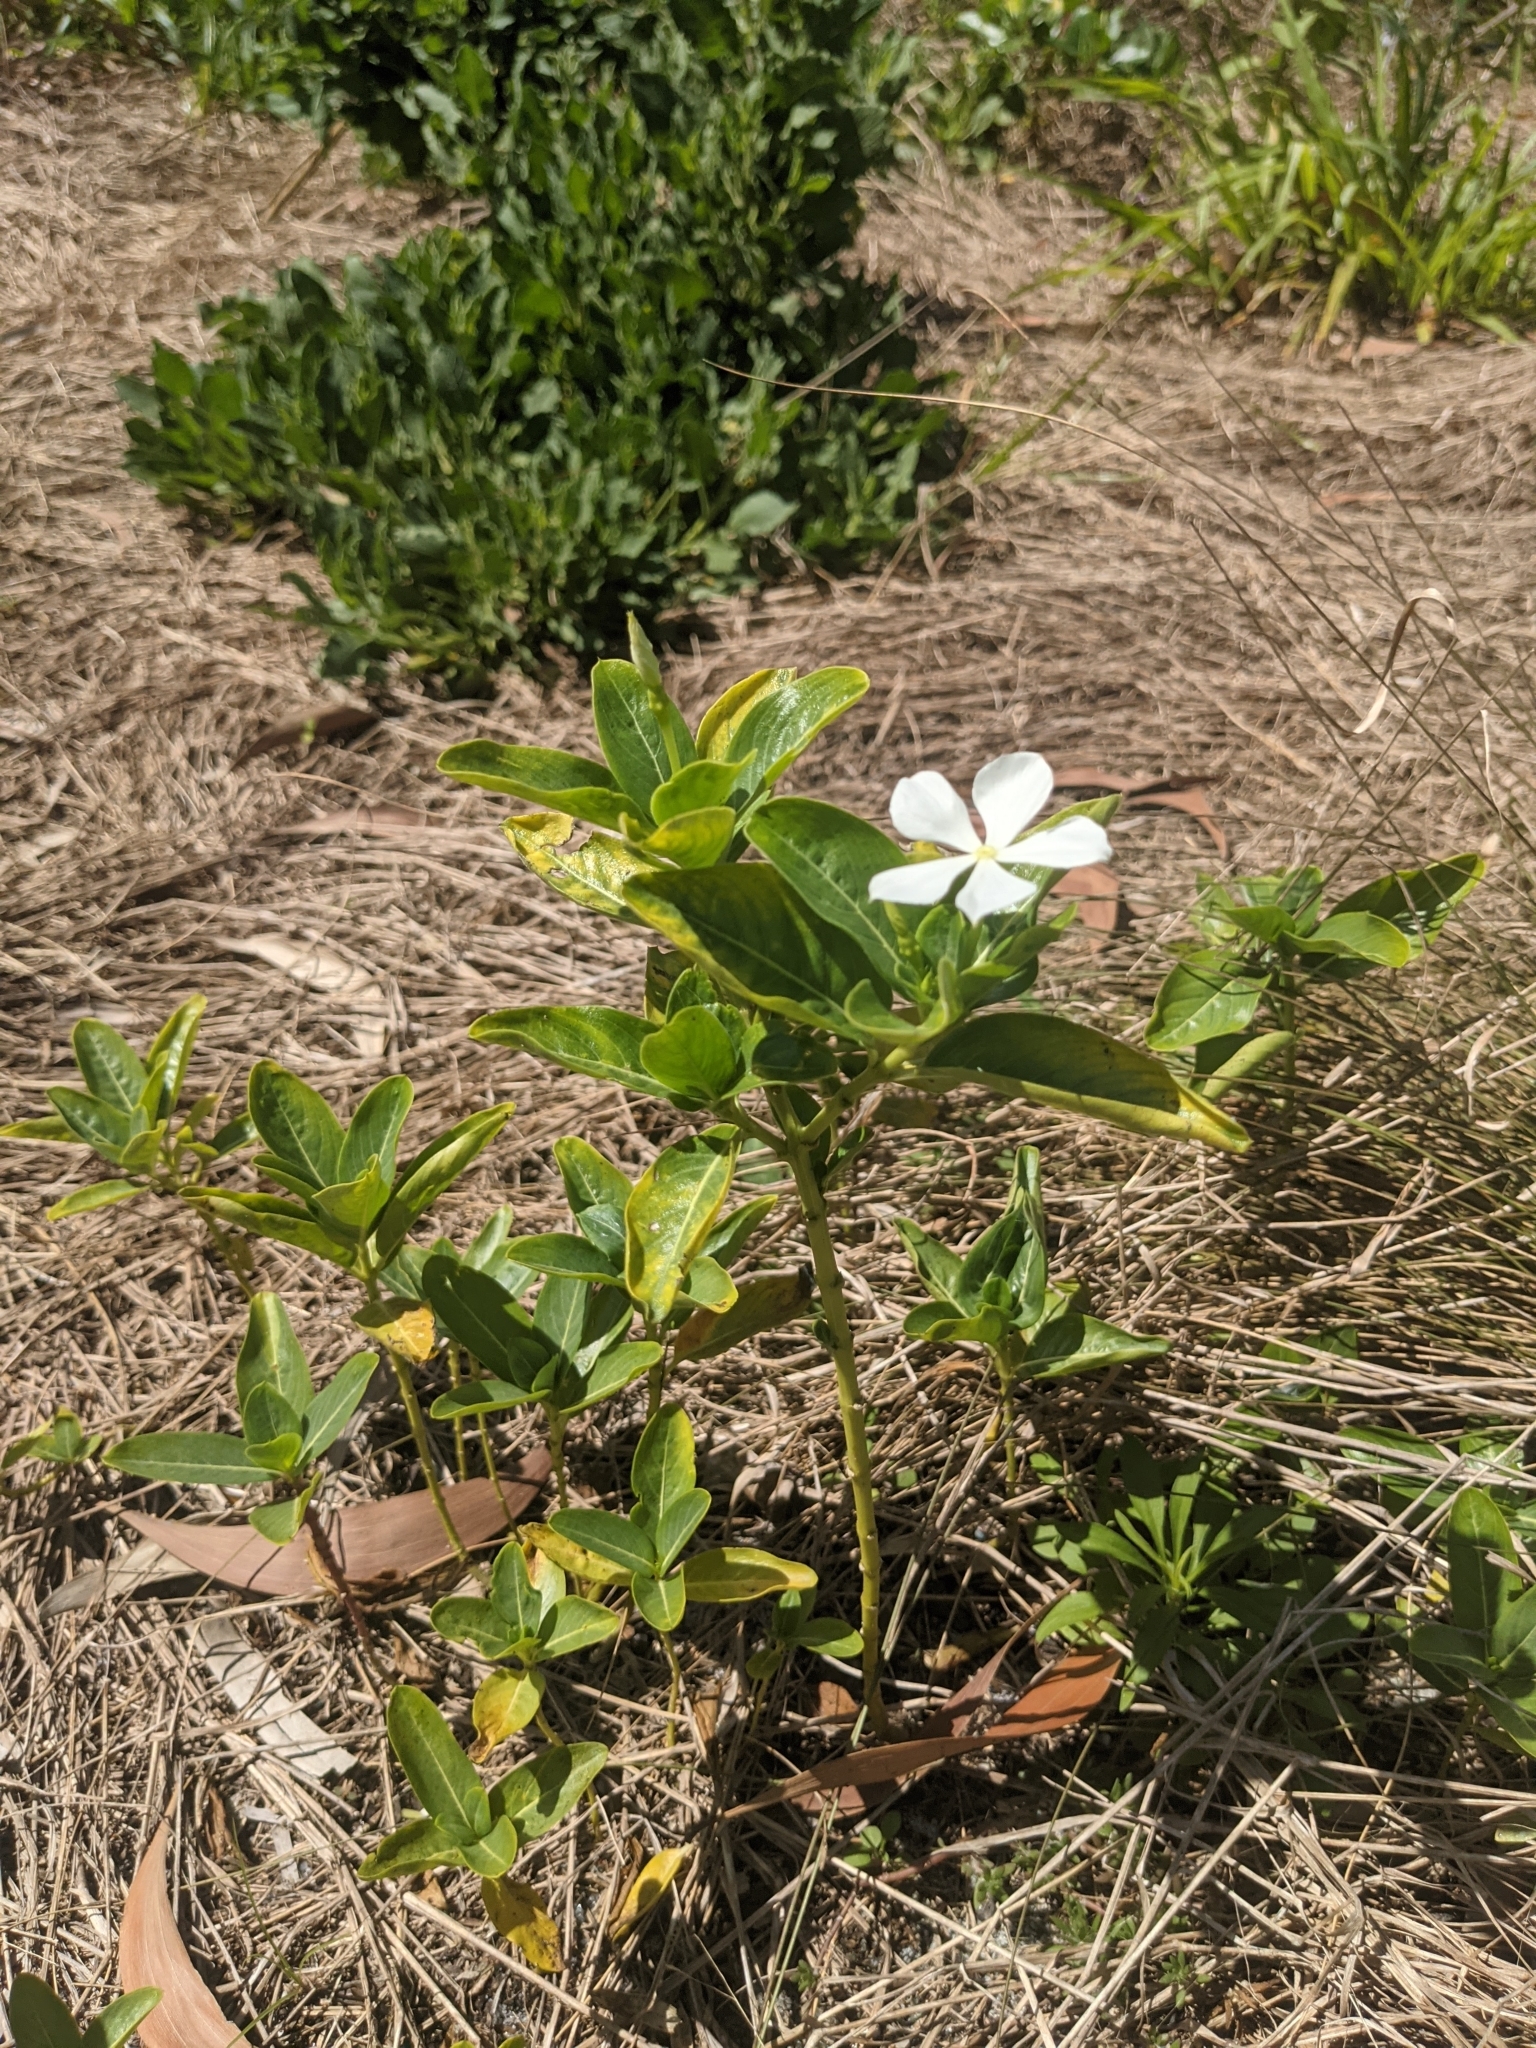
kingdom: Plantae
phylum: Tracheophyta
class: Magnoliopsida
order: Gentianales
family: Apocynaceae
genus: Catharanthus
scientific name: Catharanthus roseus
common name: Madagascar periwinkle
